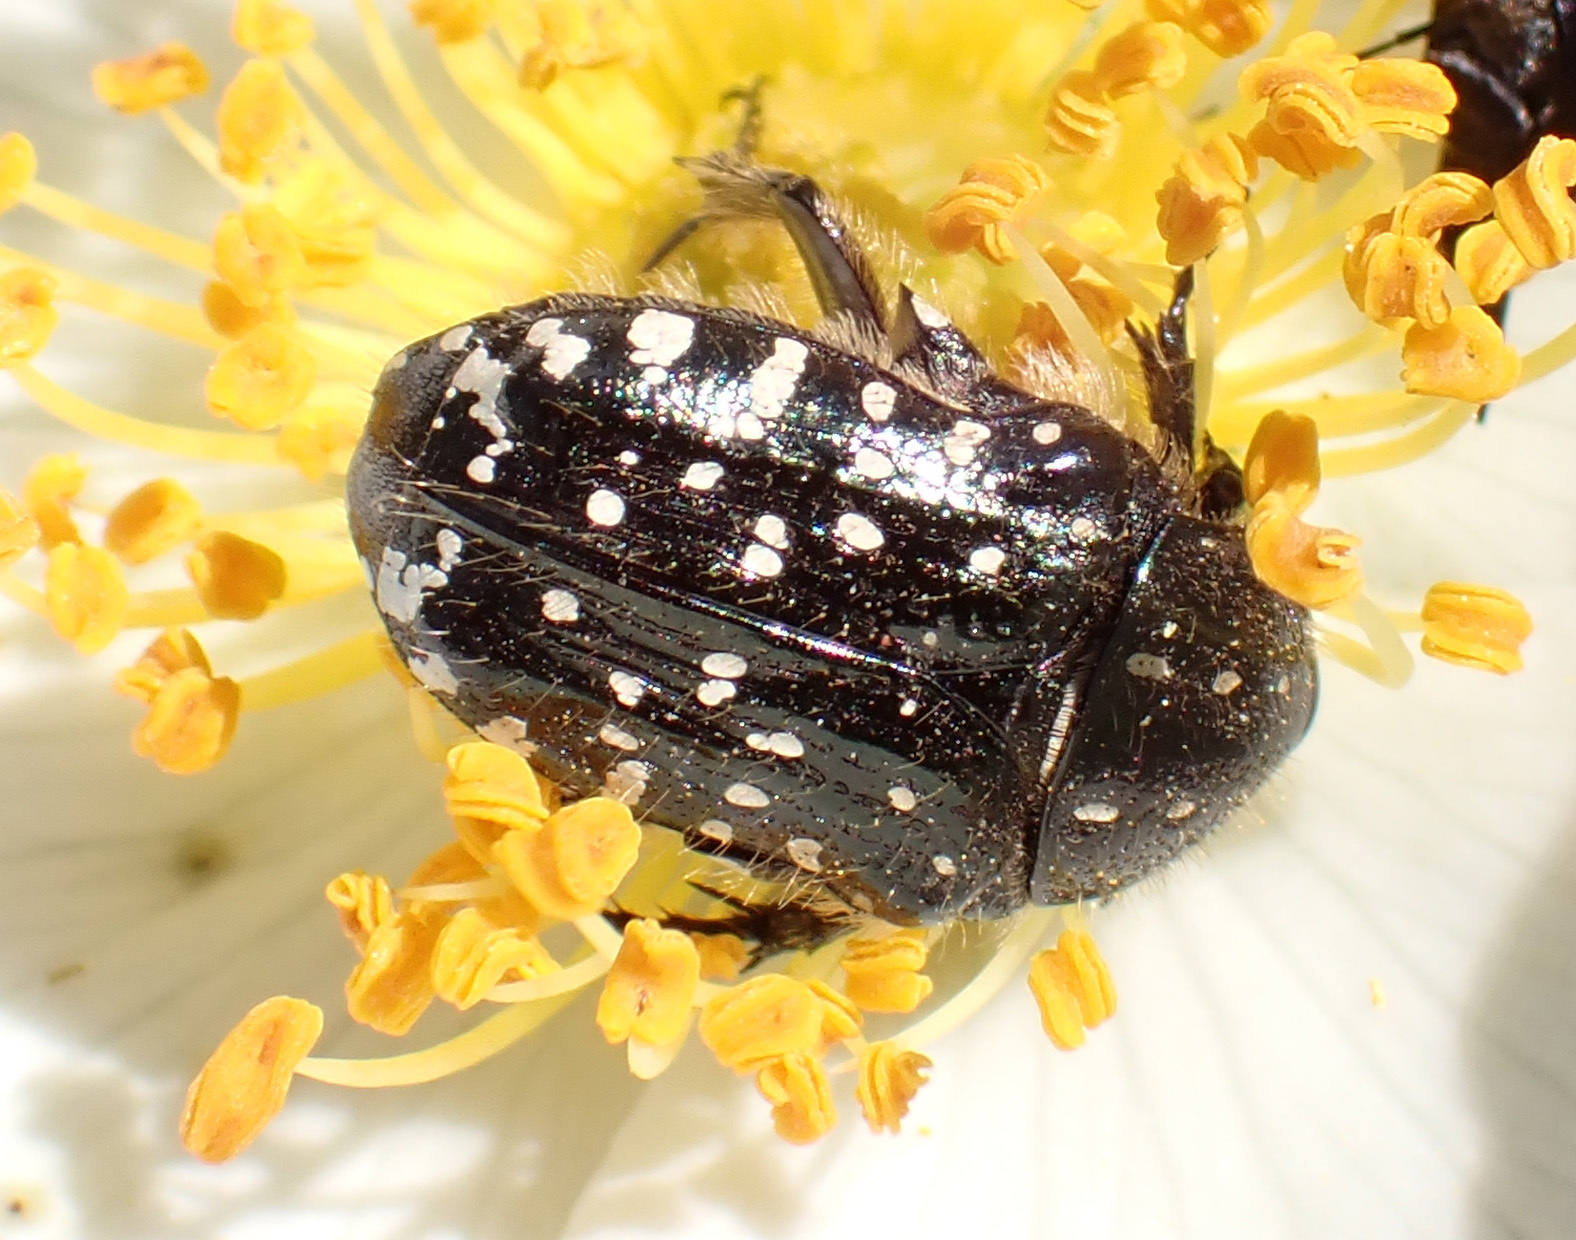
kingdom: Animalia
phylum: Arthropoda
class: Insecta
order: Coleoptera
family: Scarabaeidae
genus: Oxythyrea
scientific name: Oxythyrea funesta
